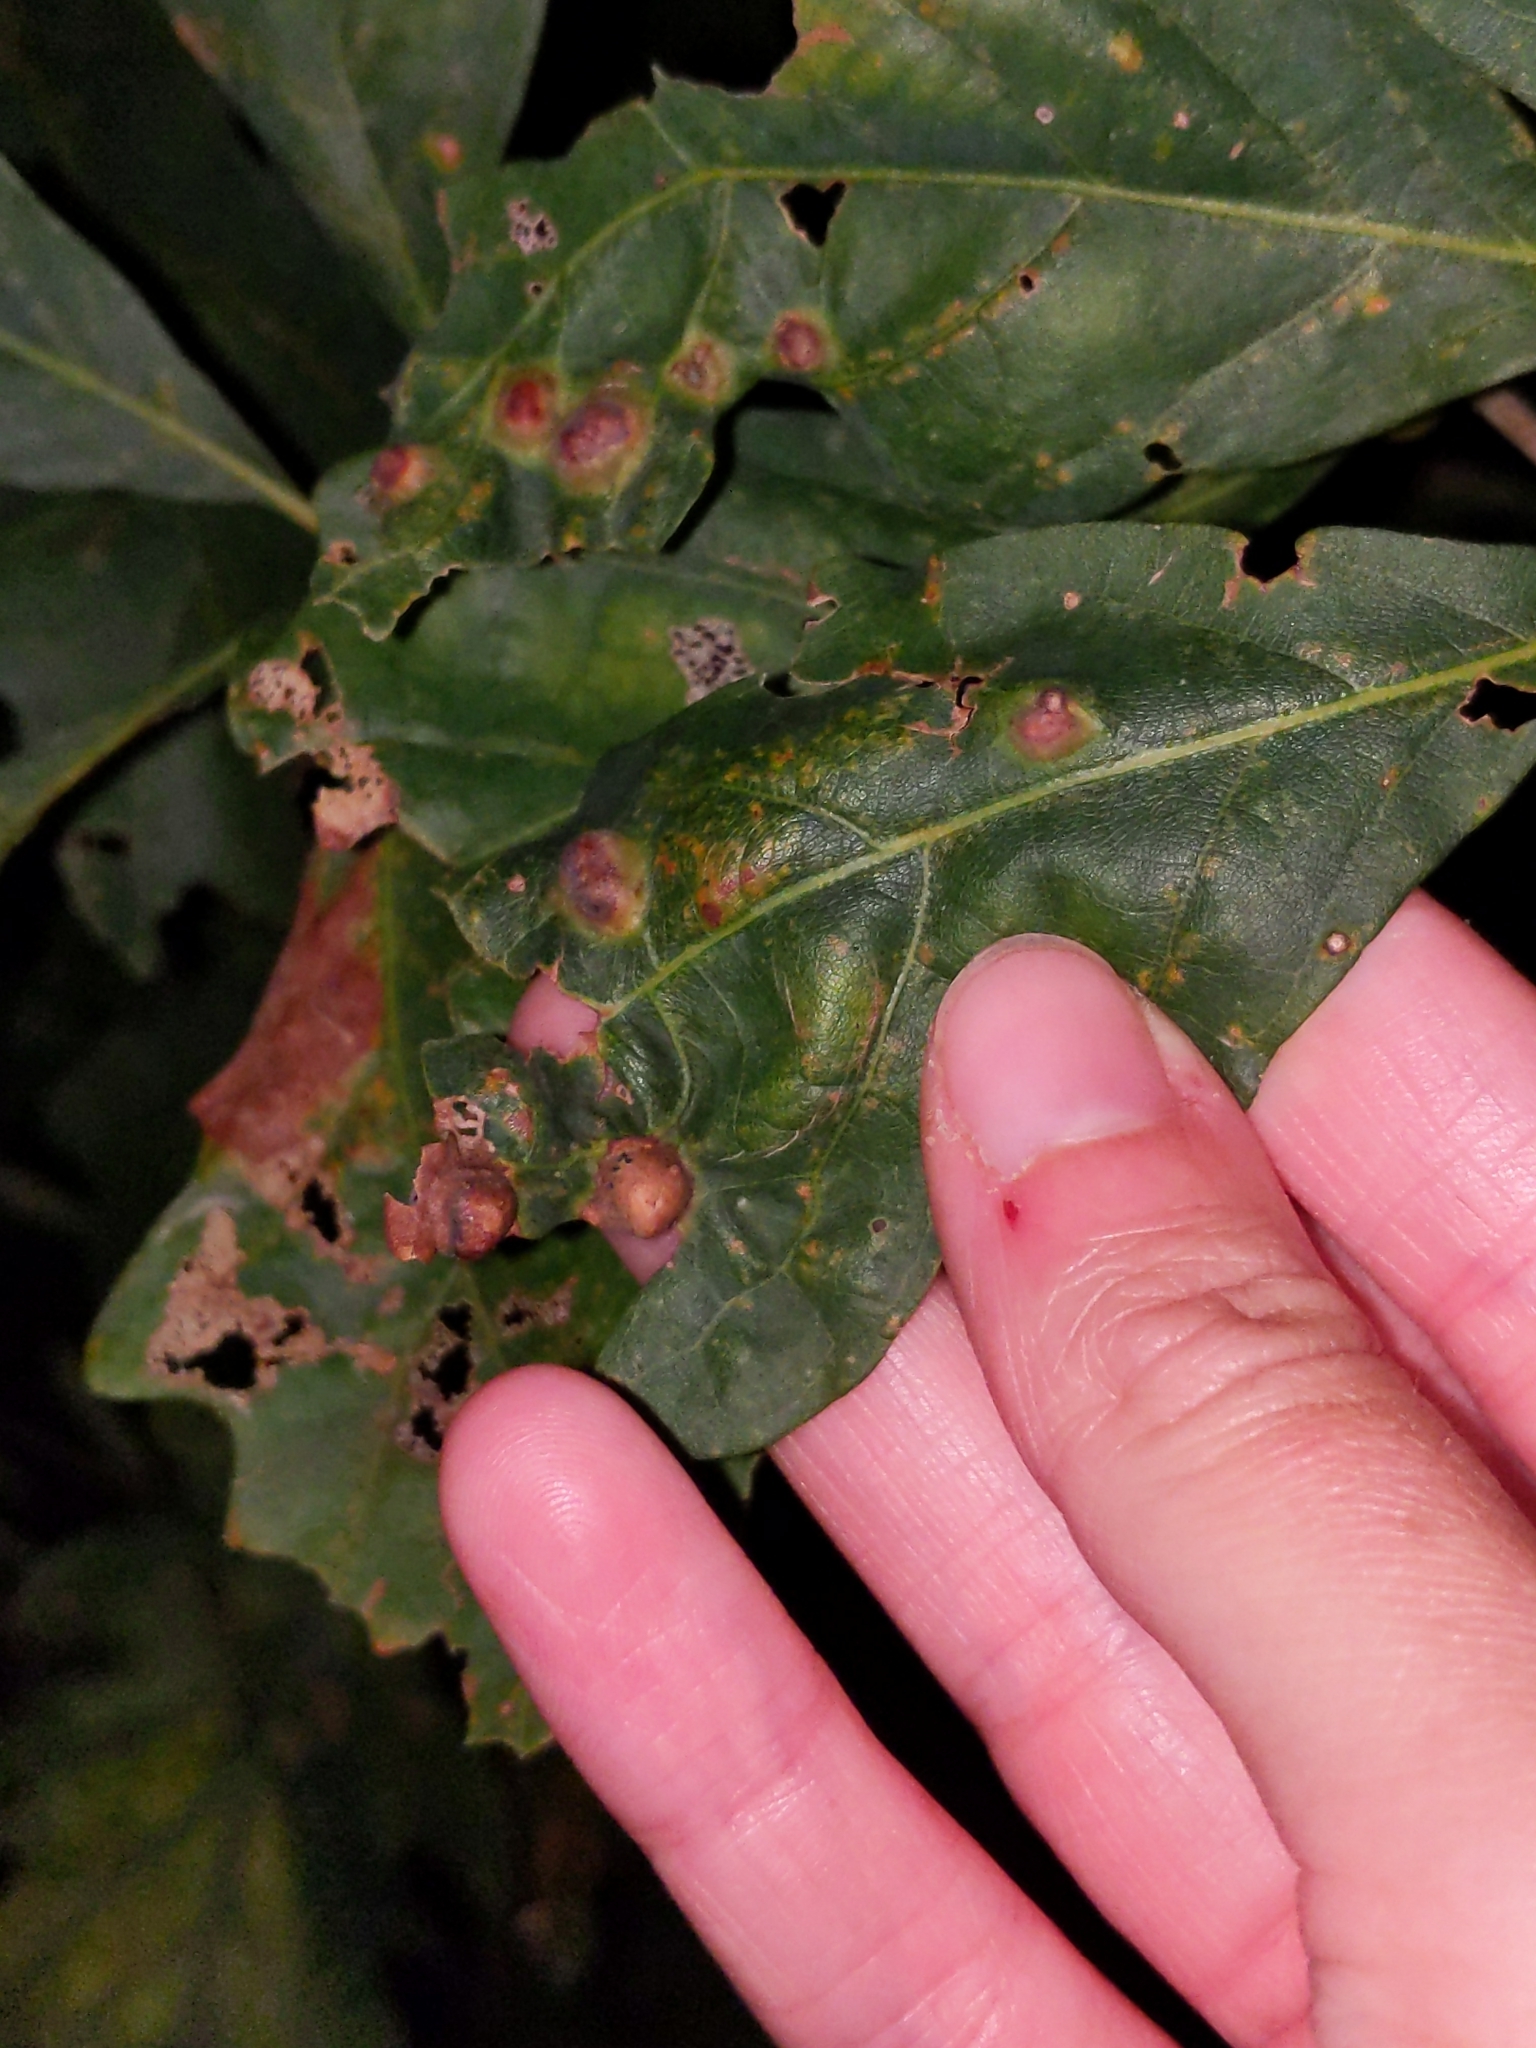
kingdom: Animalia
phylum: Arthropoda
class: Insecta
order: Hymenoptera
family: Cynipidae
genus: Callirhytis
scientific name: Callirhytis
